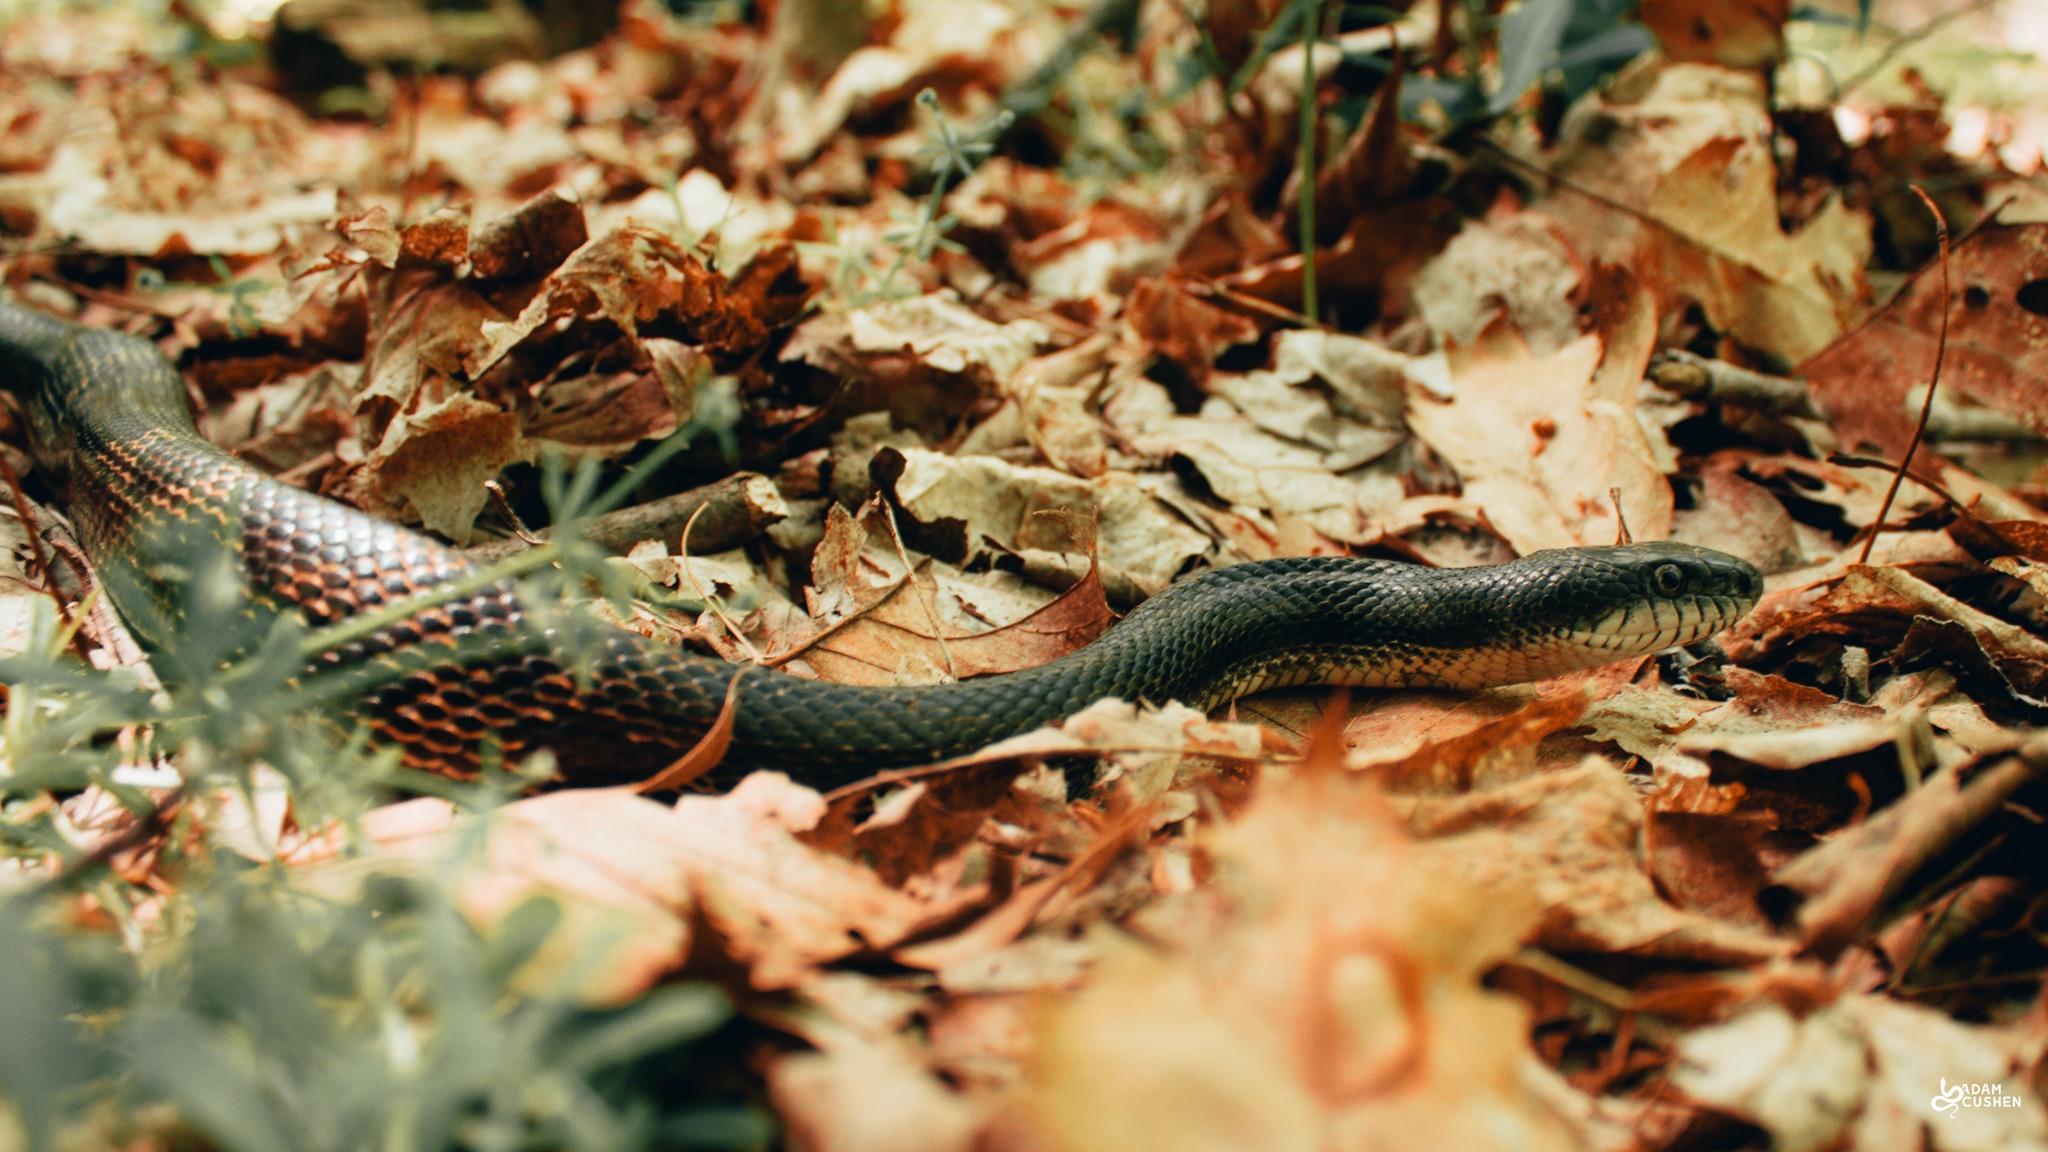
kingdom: Animalia
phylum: Chordata
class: Squamata
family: Colubridae
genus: Pantherophis
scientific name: Pantherophis spiloides
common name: Gray rat snake
